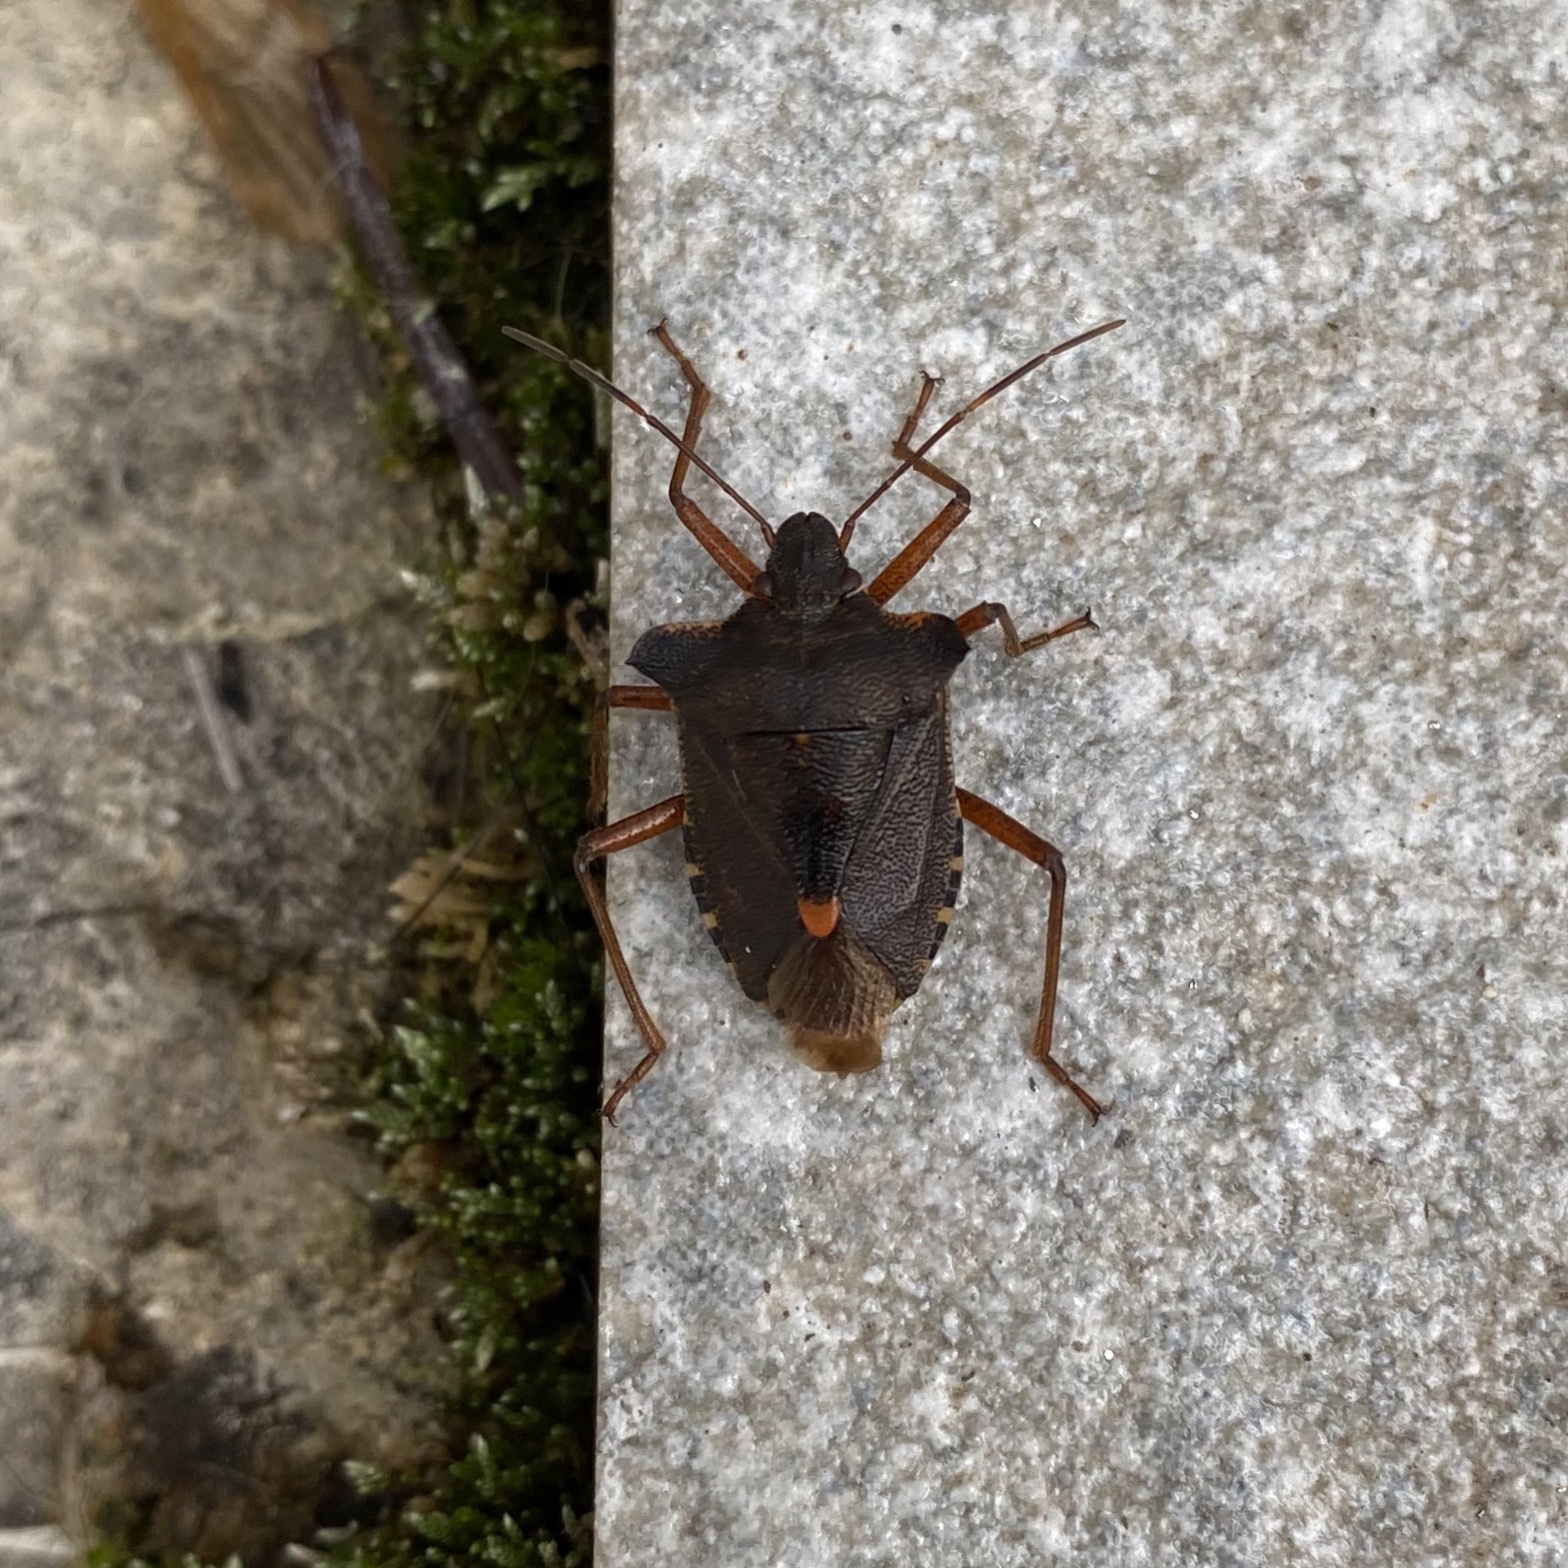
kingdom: Animalia
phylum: Arthropoda
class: Insecta
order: Hemiptera
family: Pentatomidae
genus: Pentatoma
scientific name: Pentatoma rufipes
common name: Forest bug
